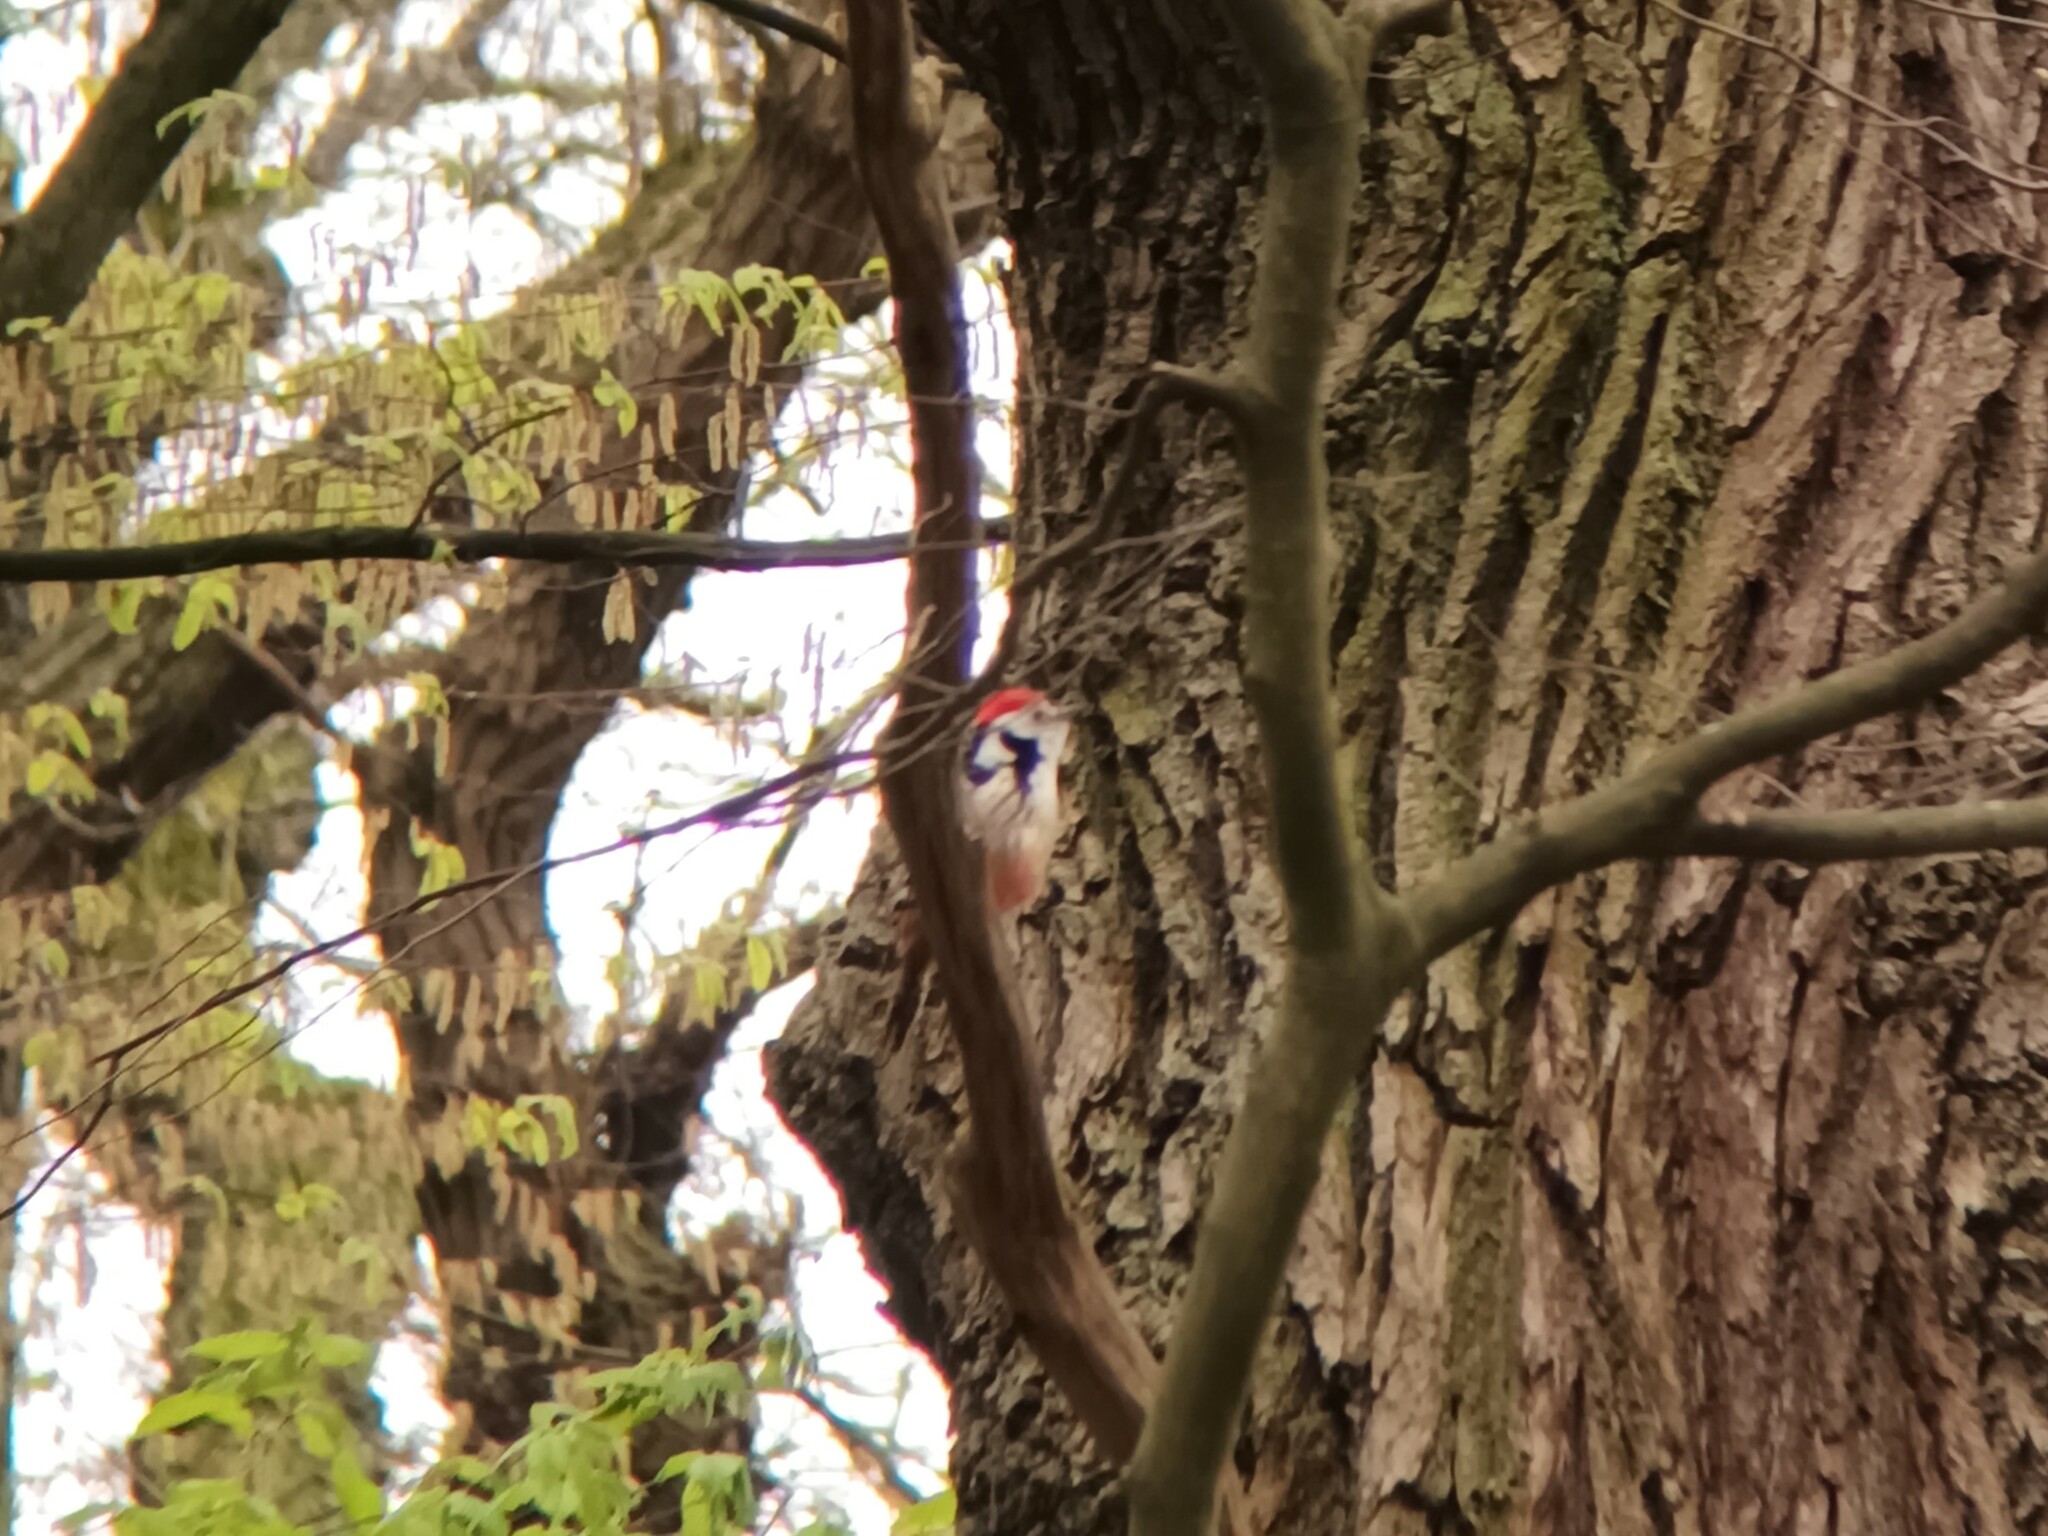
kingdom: Animalia
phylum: Chordata
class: Aves
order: Piciformes
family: Picidae
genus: Dendrocoptes
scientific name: Dendrocoptes medius
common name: Middle spotted woodpecker
